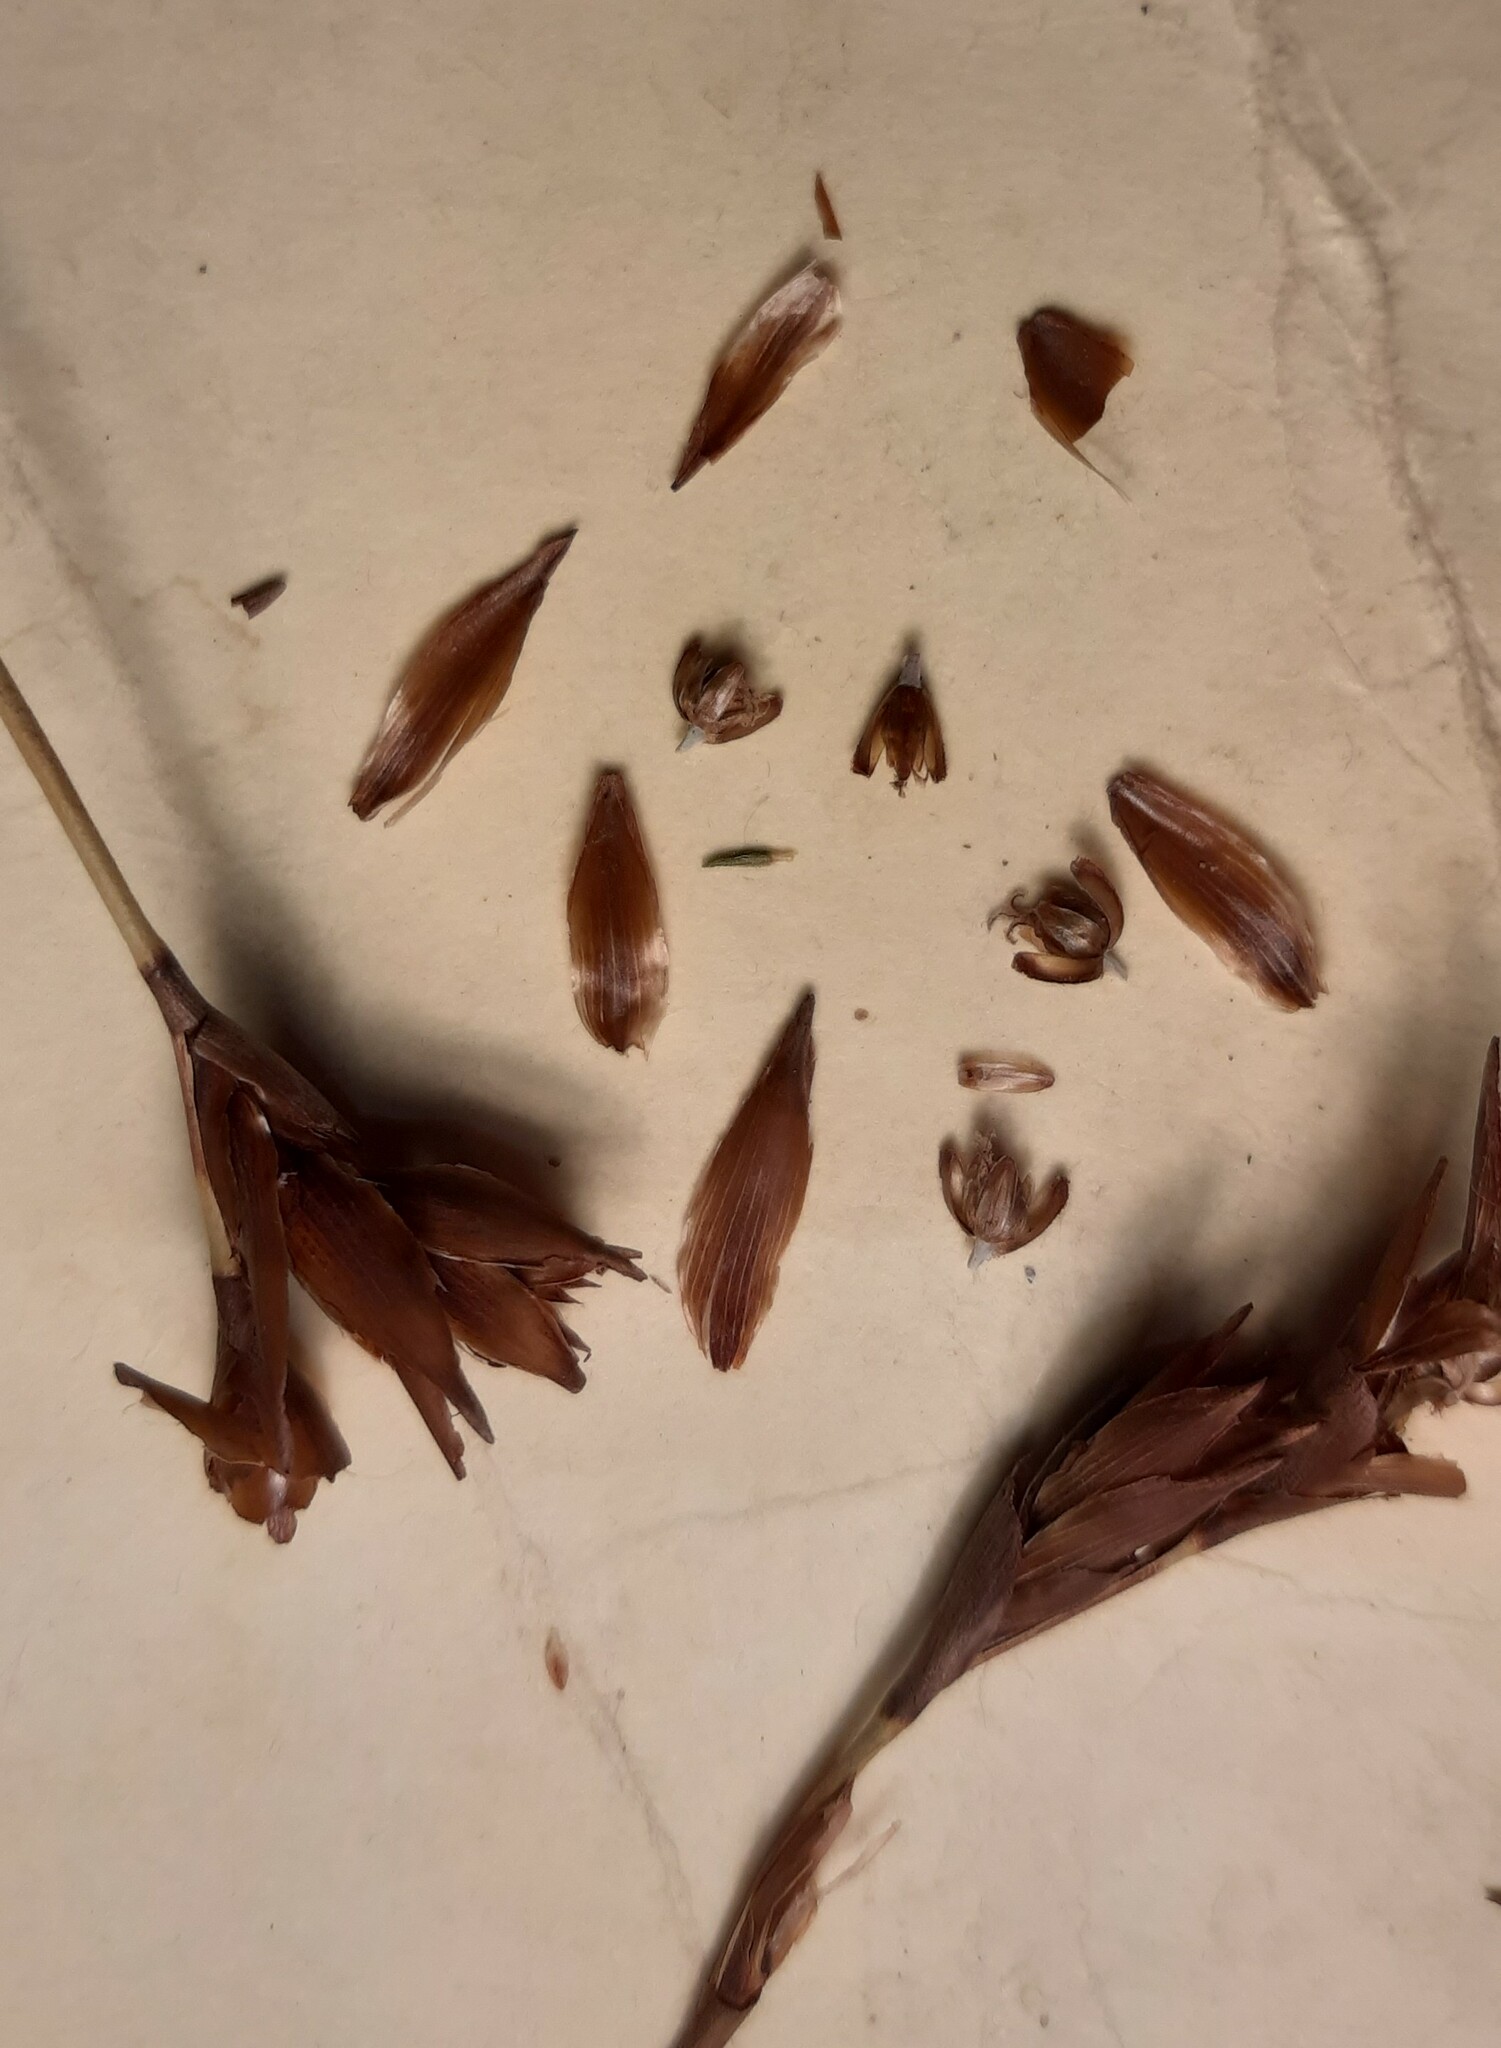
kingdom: Plantae
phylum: Tracheophyta
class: Liliopsida
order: Poales
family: Restionaceae
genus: Platycaulos
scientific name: Platycaulos compressus
